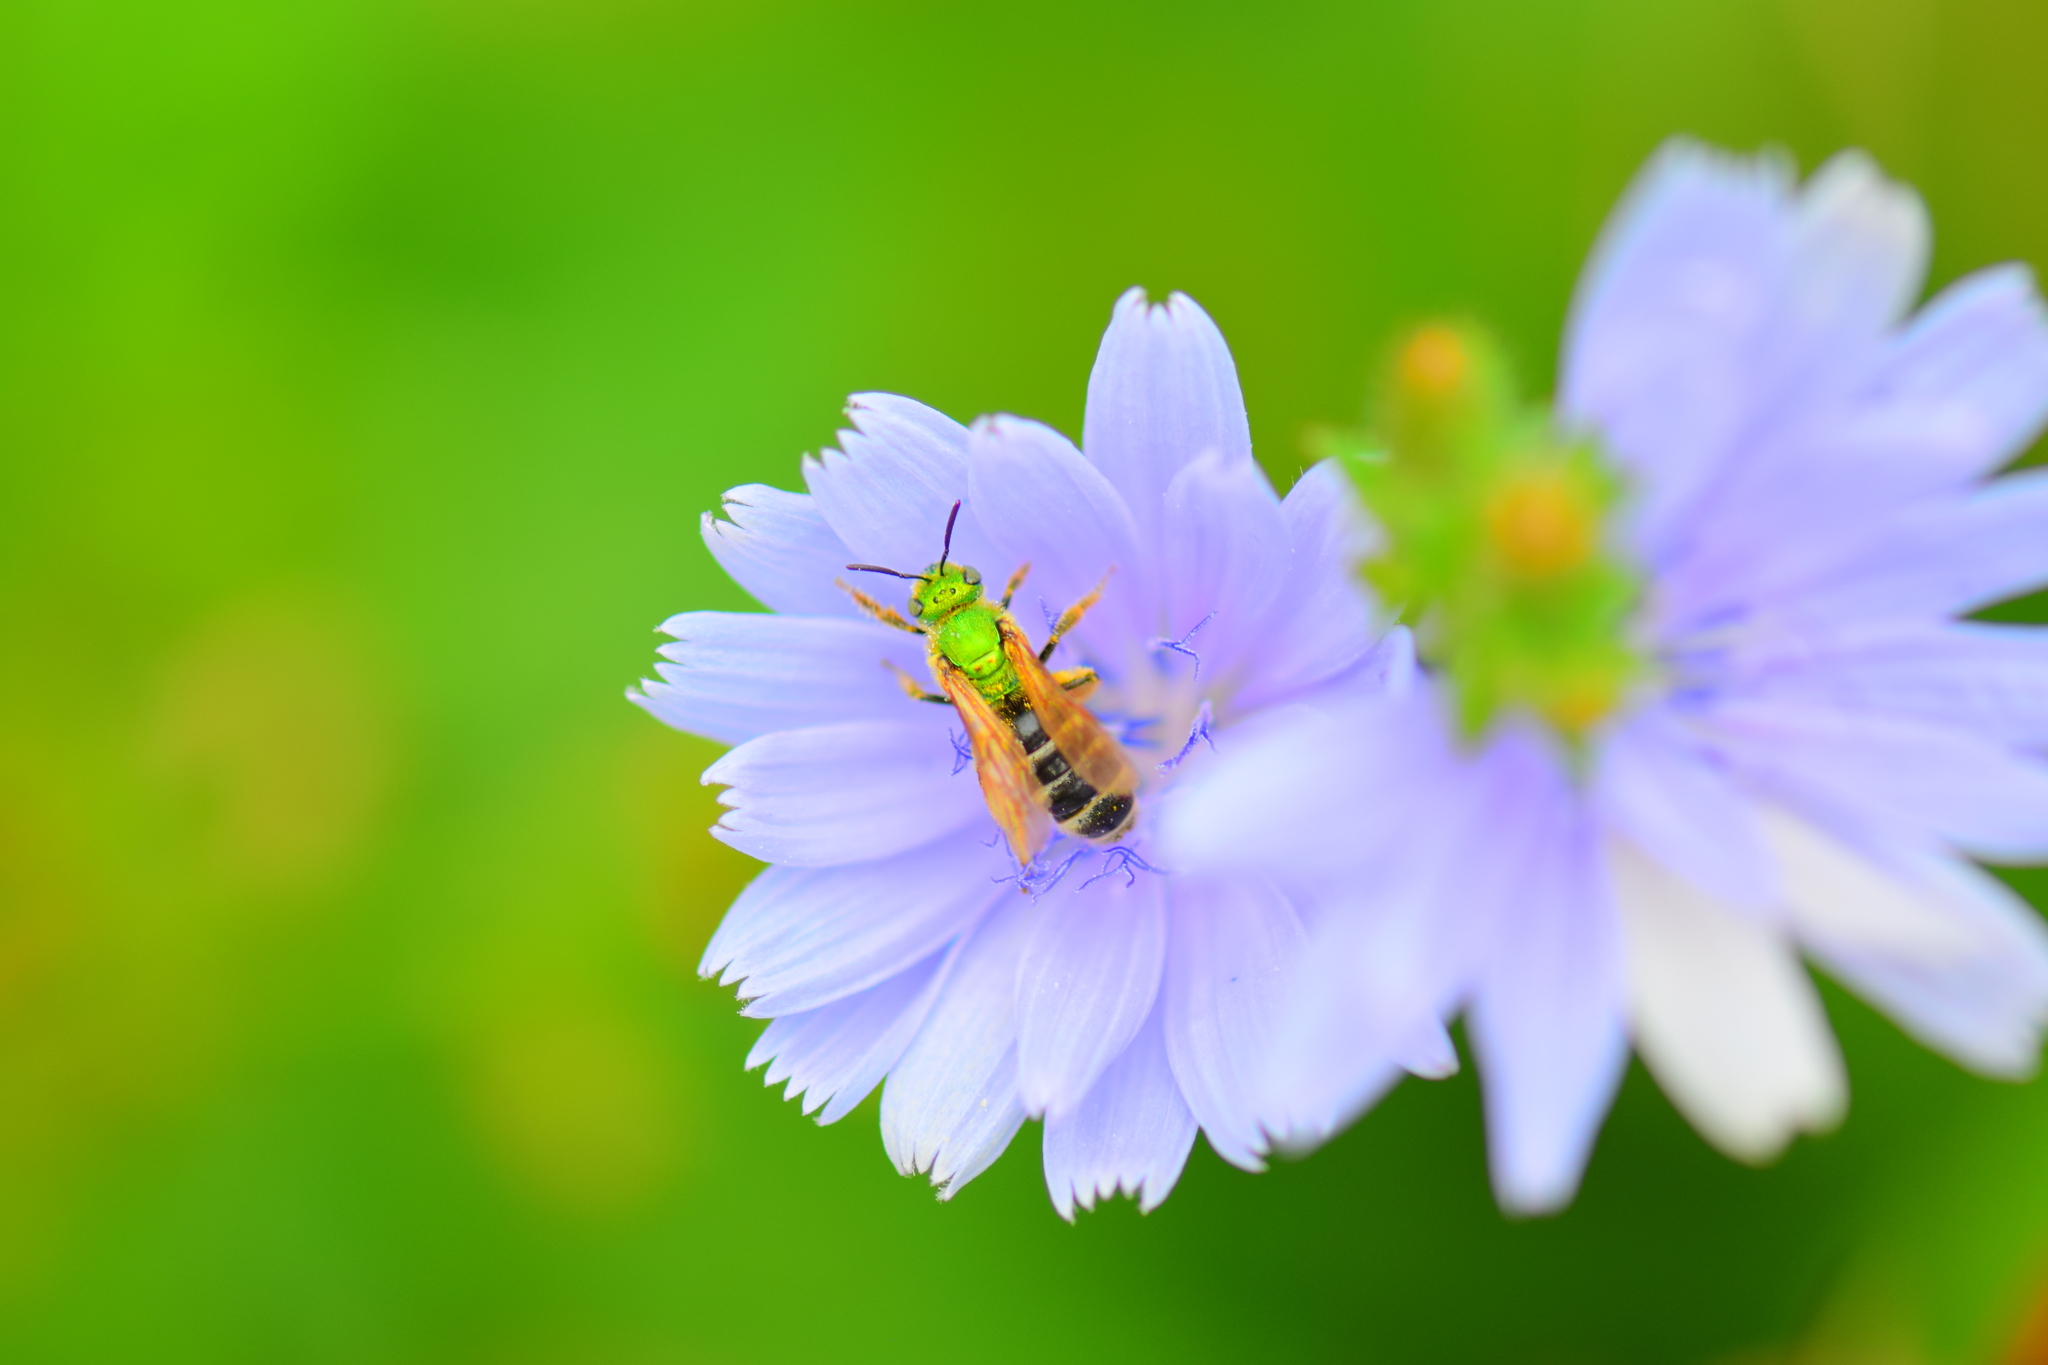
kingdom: Animalia
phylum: Arthropoda
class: Insecta
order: Hymenoptera
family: Halictidae
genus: Agapostemon
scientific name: Agapostemon virescens
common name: Bicolored striped sweat bee
